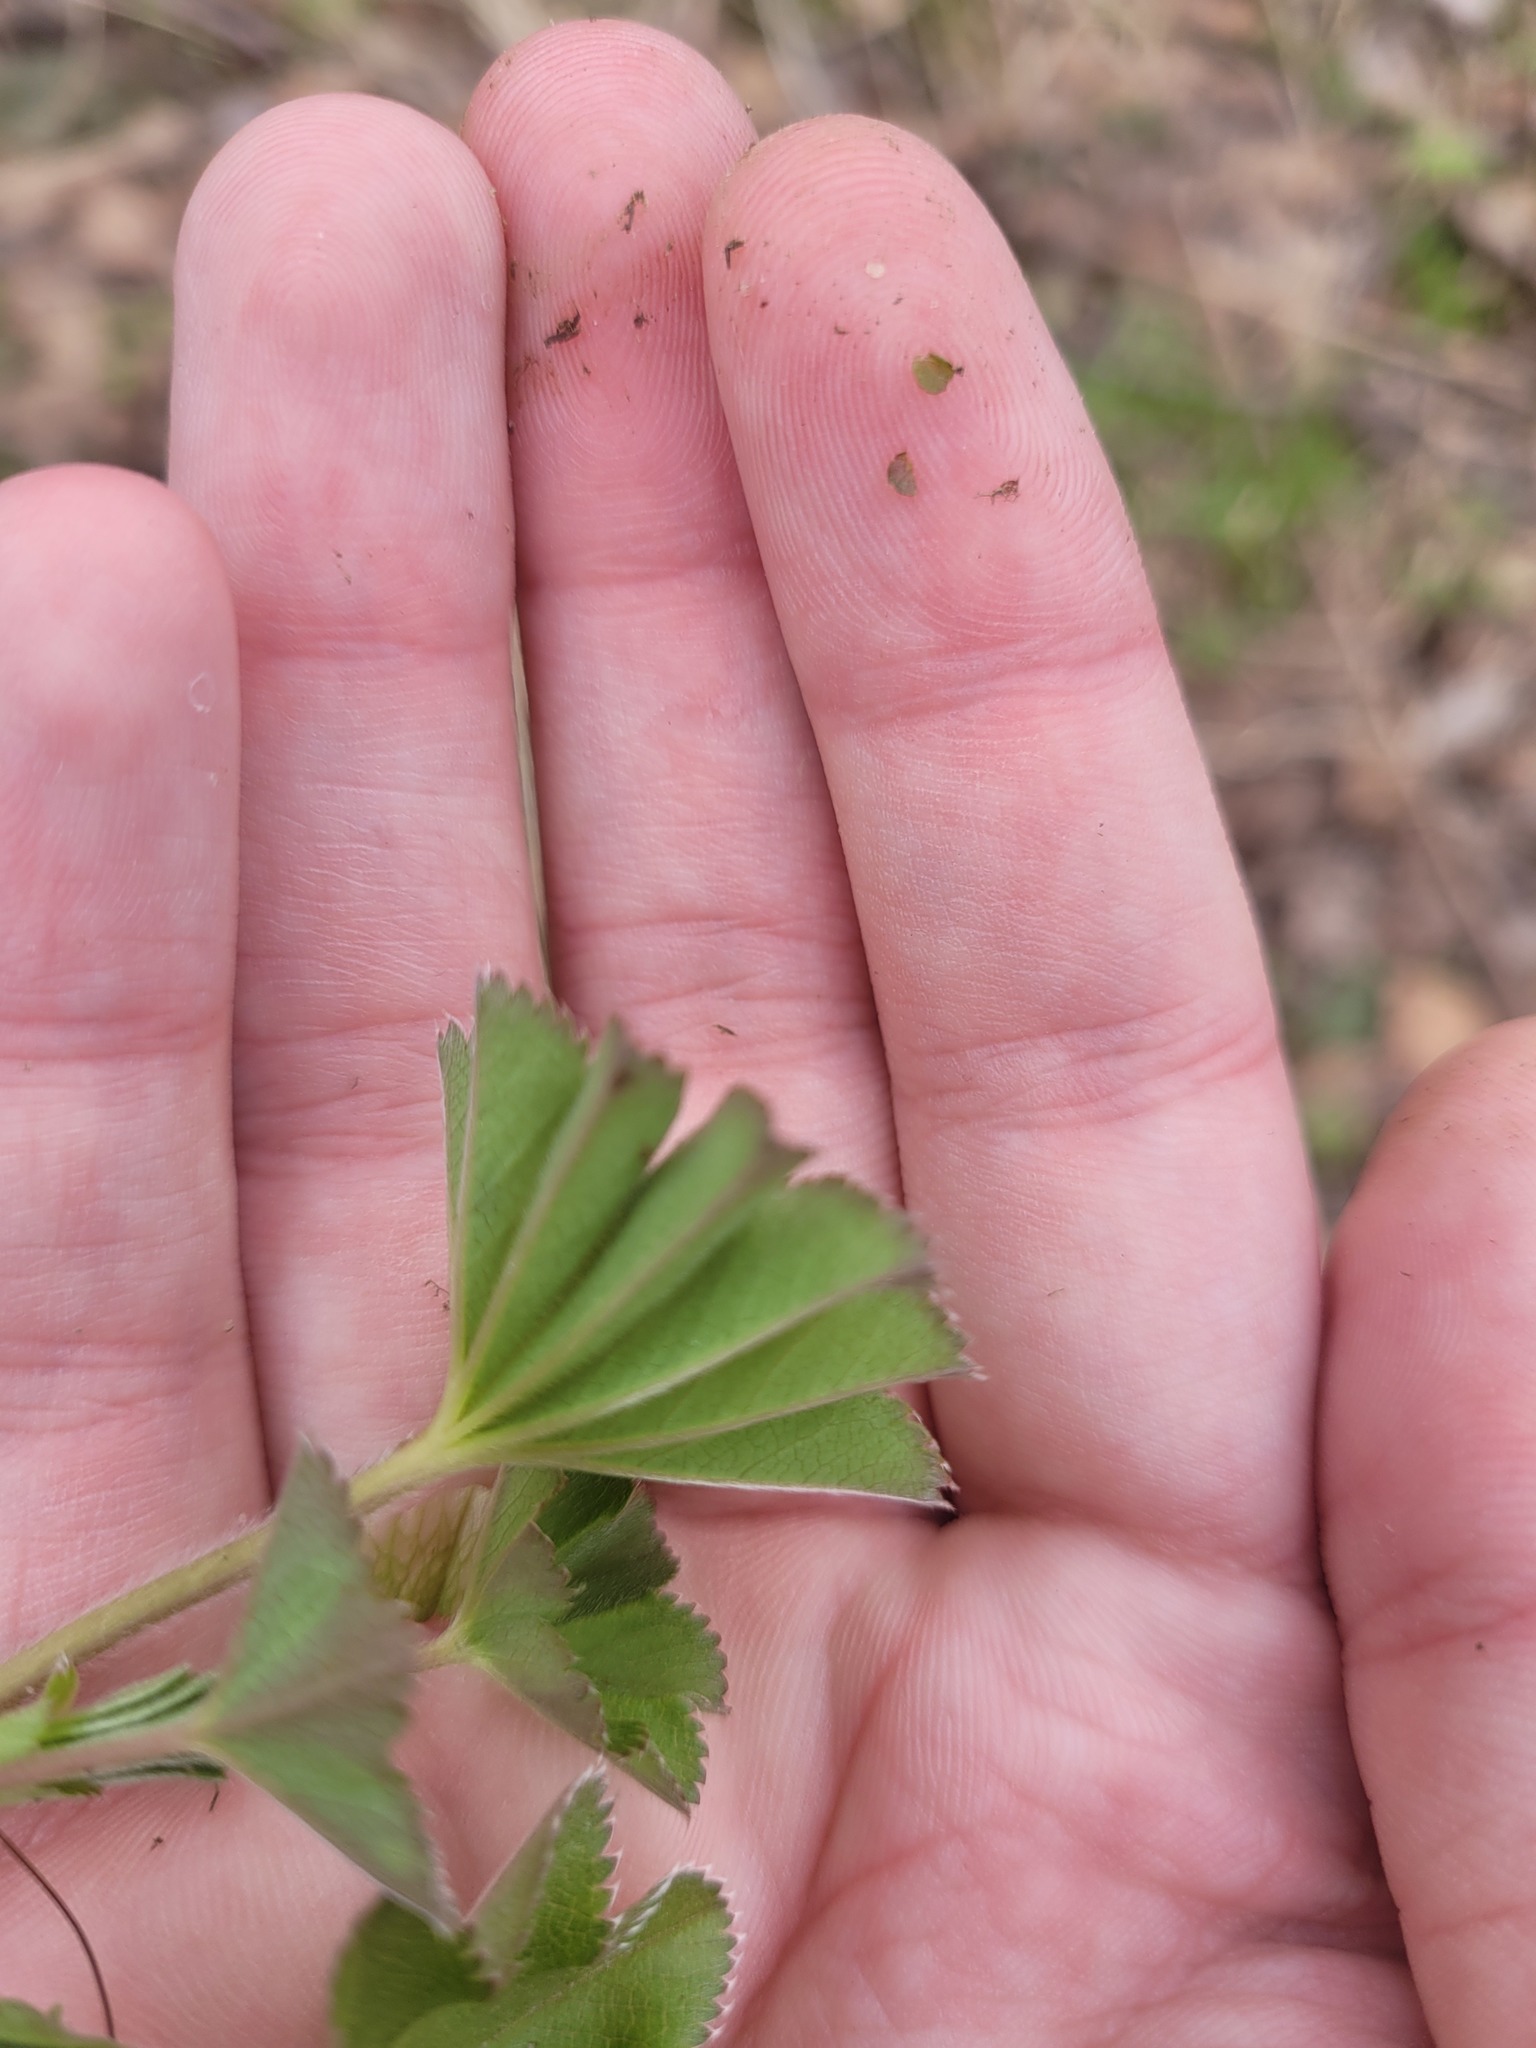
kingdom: Plantae
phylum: Tracheophyta
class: Magnoliopsida
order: Rosales
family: Rosaceae
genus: Alchemilla
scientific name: Alchemilla
